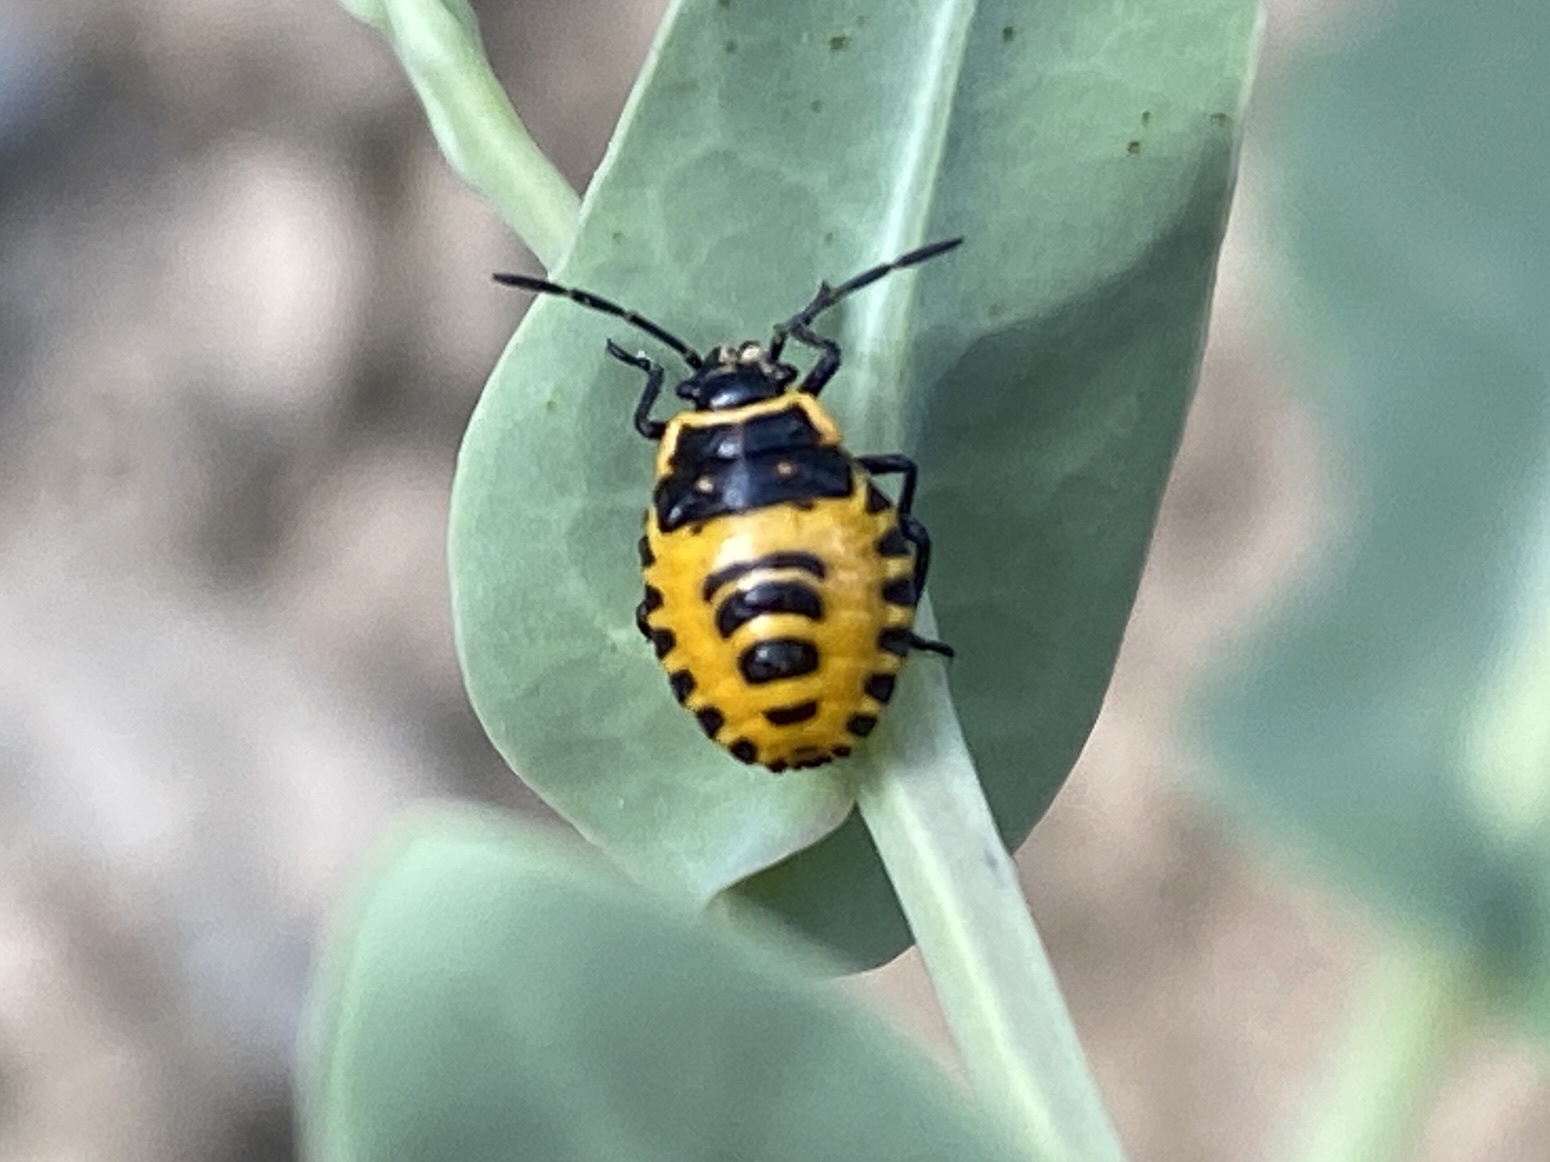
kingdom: Animalia
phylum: Arthropoda
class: Insecta
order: Hemiptera
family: Pentatomidae
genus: Eurydema
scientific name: Eurydema ventralis
